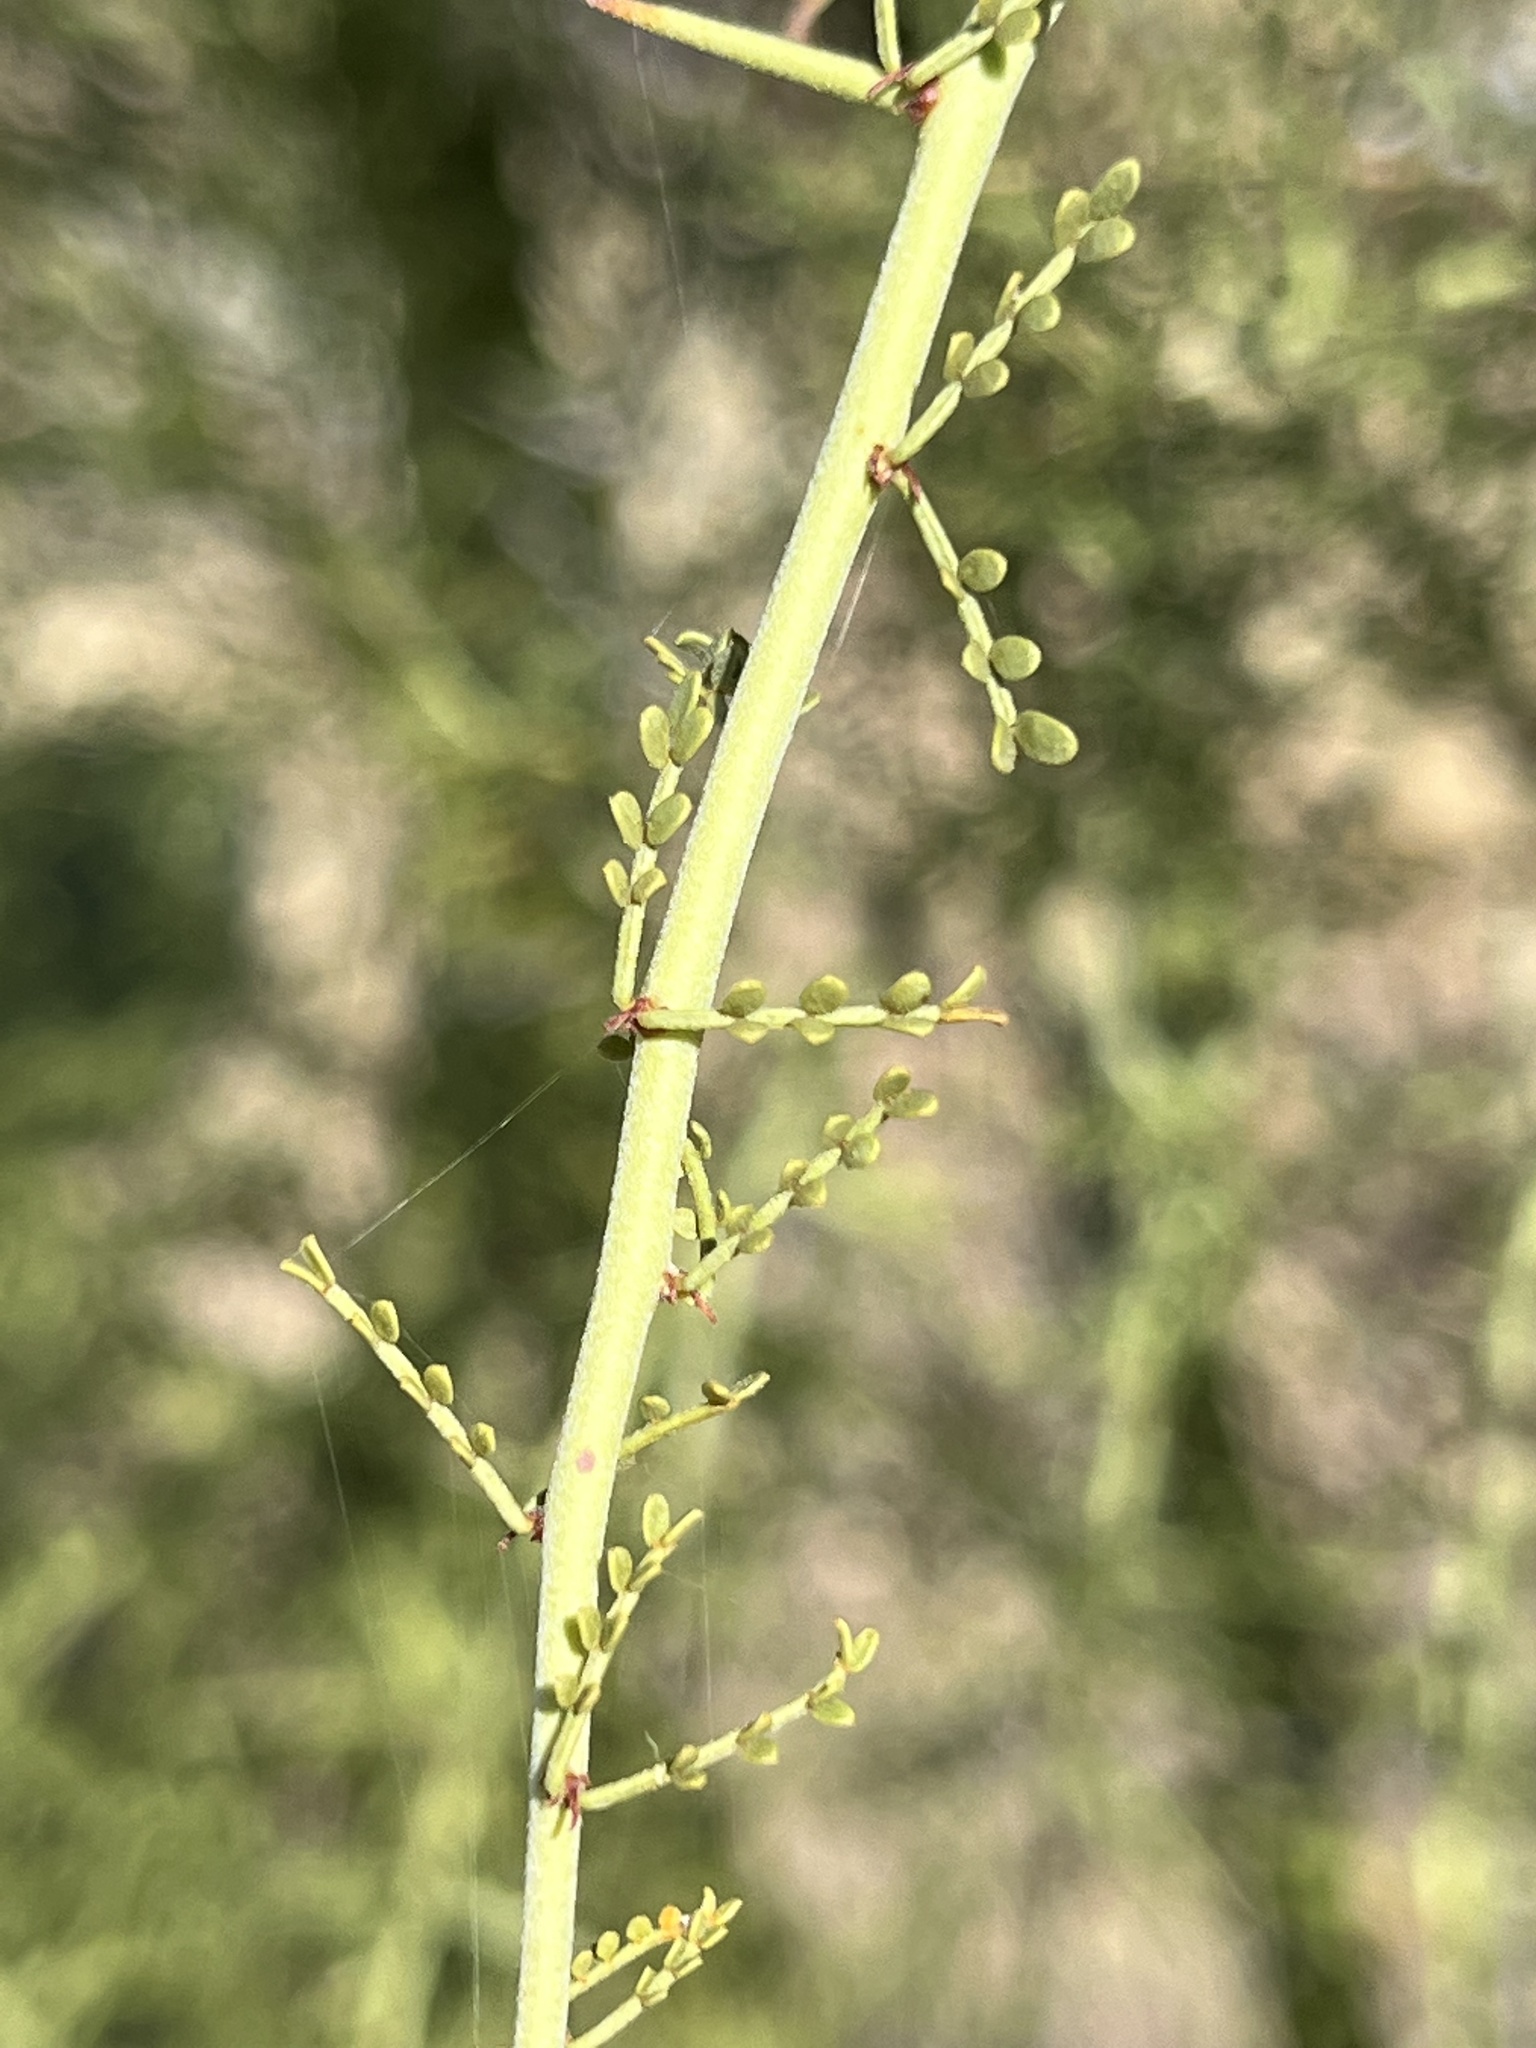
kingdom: Plantae
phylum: Tracheophyta
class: Magnoliopsida
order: Fabales
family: Fabaceae
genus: Parkinsonia
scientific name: Parkinsonia microphylla
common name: Yellow paloverde
